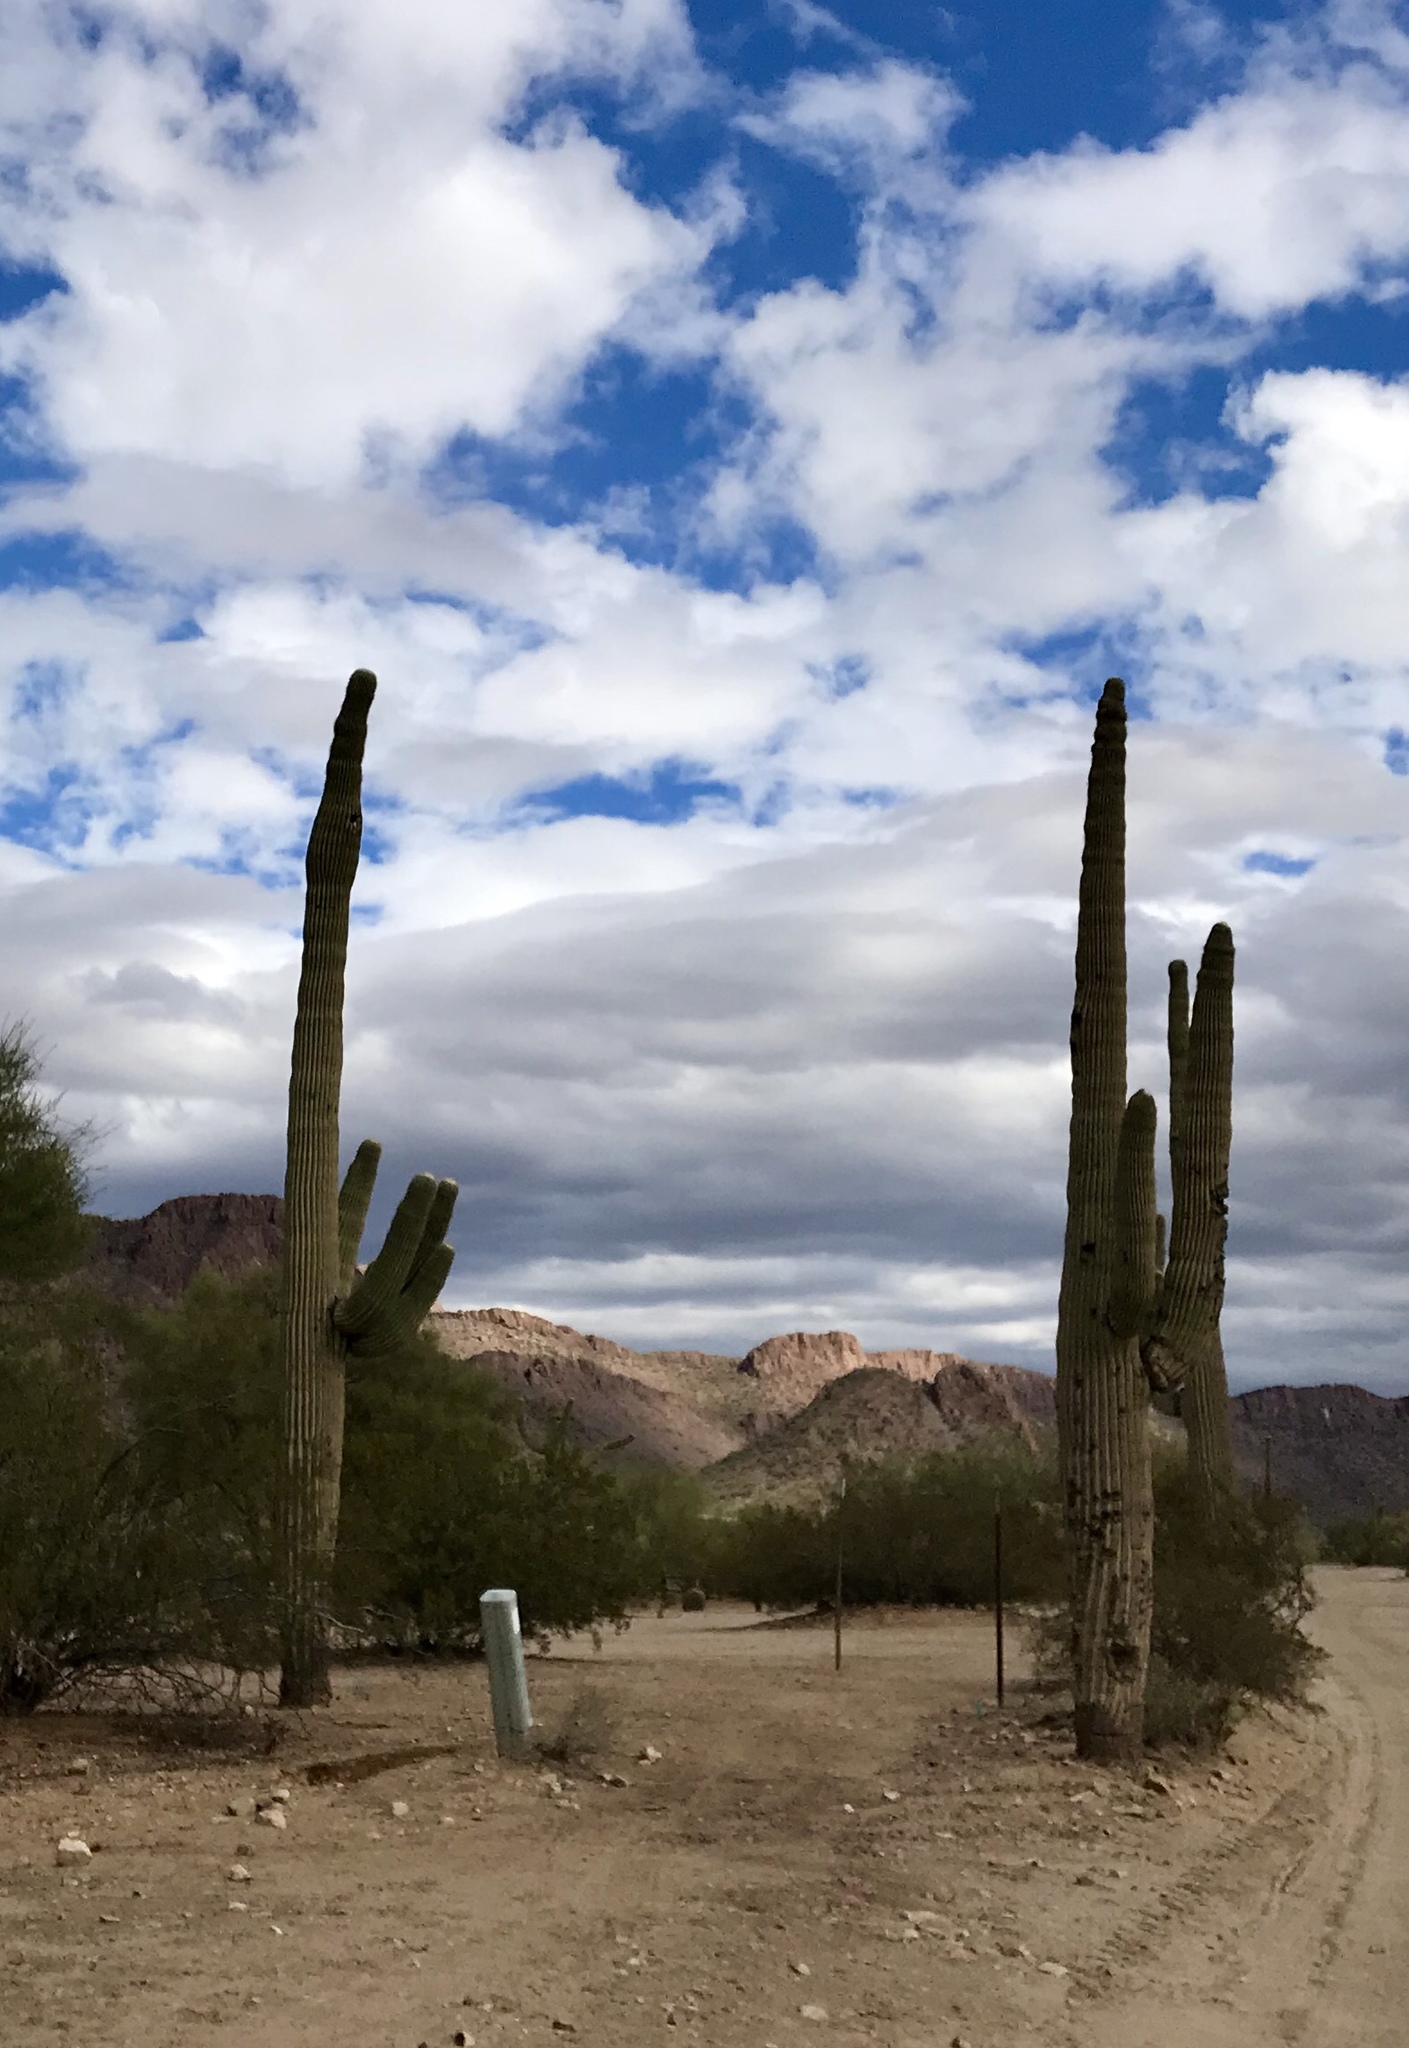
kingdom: Plantae
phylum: Tracheophyta
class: Magnoliopsida
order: Caryophyllales
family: Cactaceae
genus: Carnegiea
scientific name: Carnegiea gigantea
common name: Saguaro
